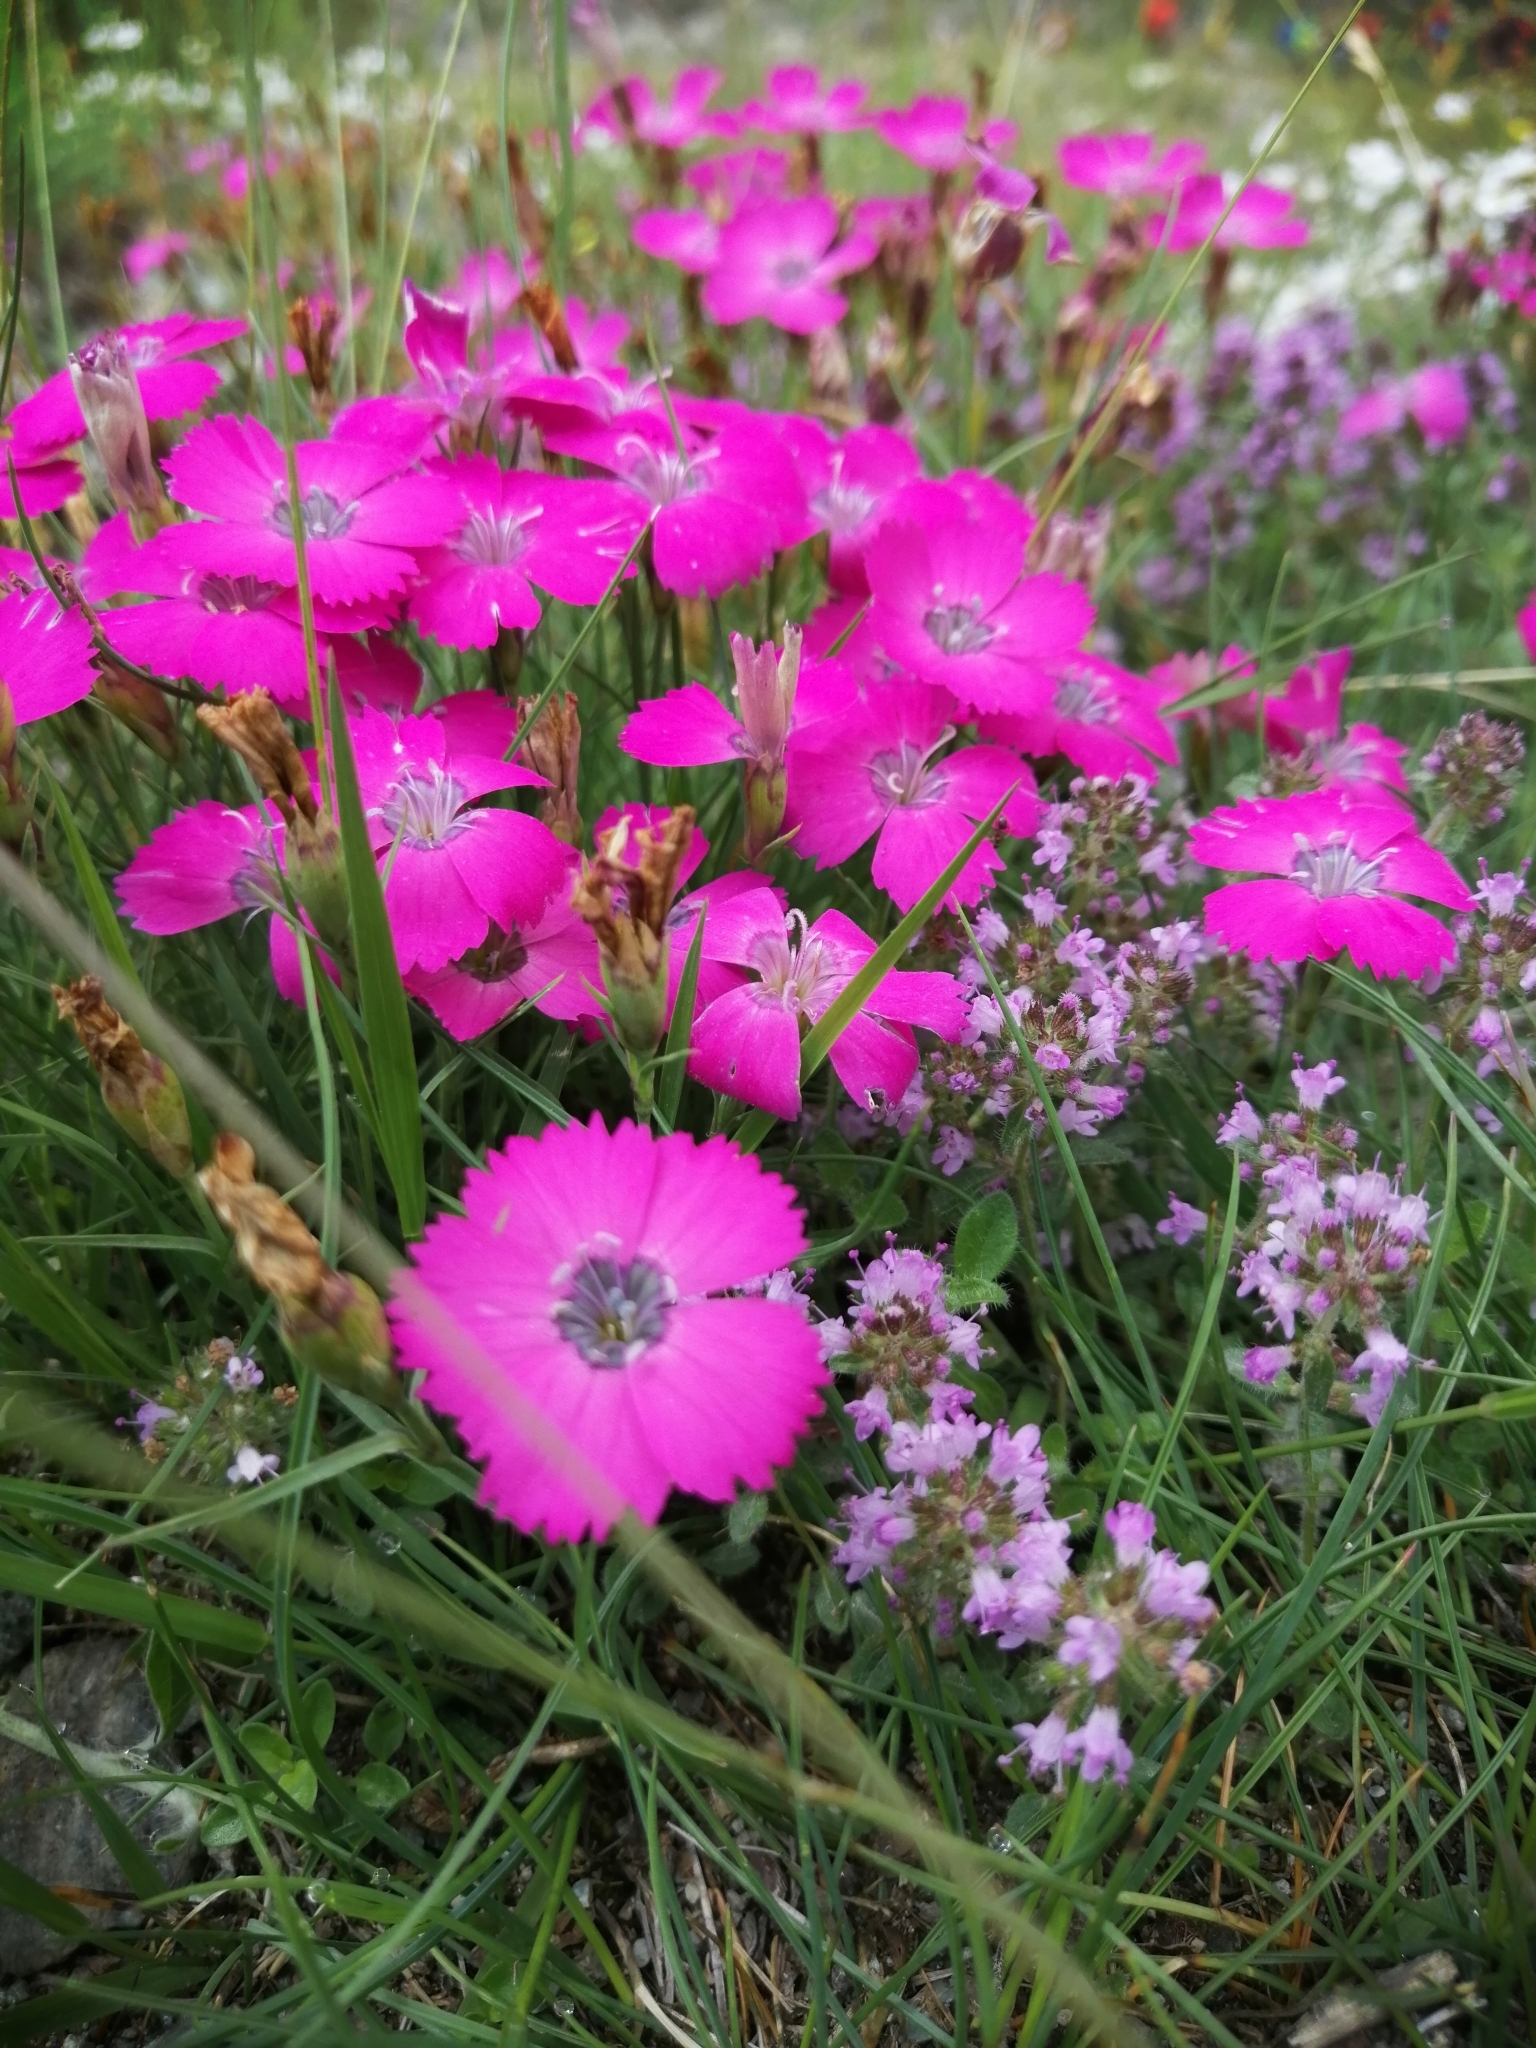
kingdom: Plantae
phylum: Tracheophyta
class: Magnoliopsida
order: Caryophyllales
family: Caryophyllaceae
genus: Dianthus
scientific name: Dianthus pavonius
